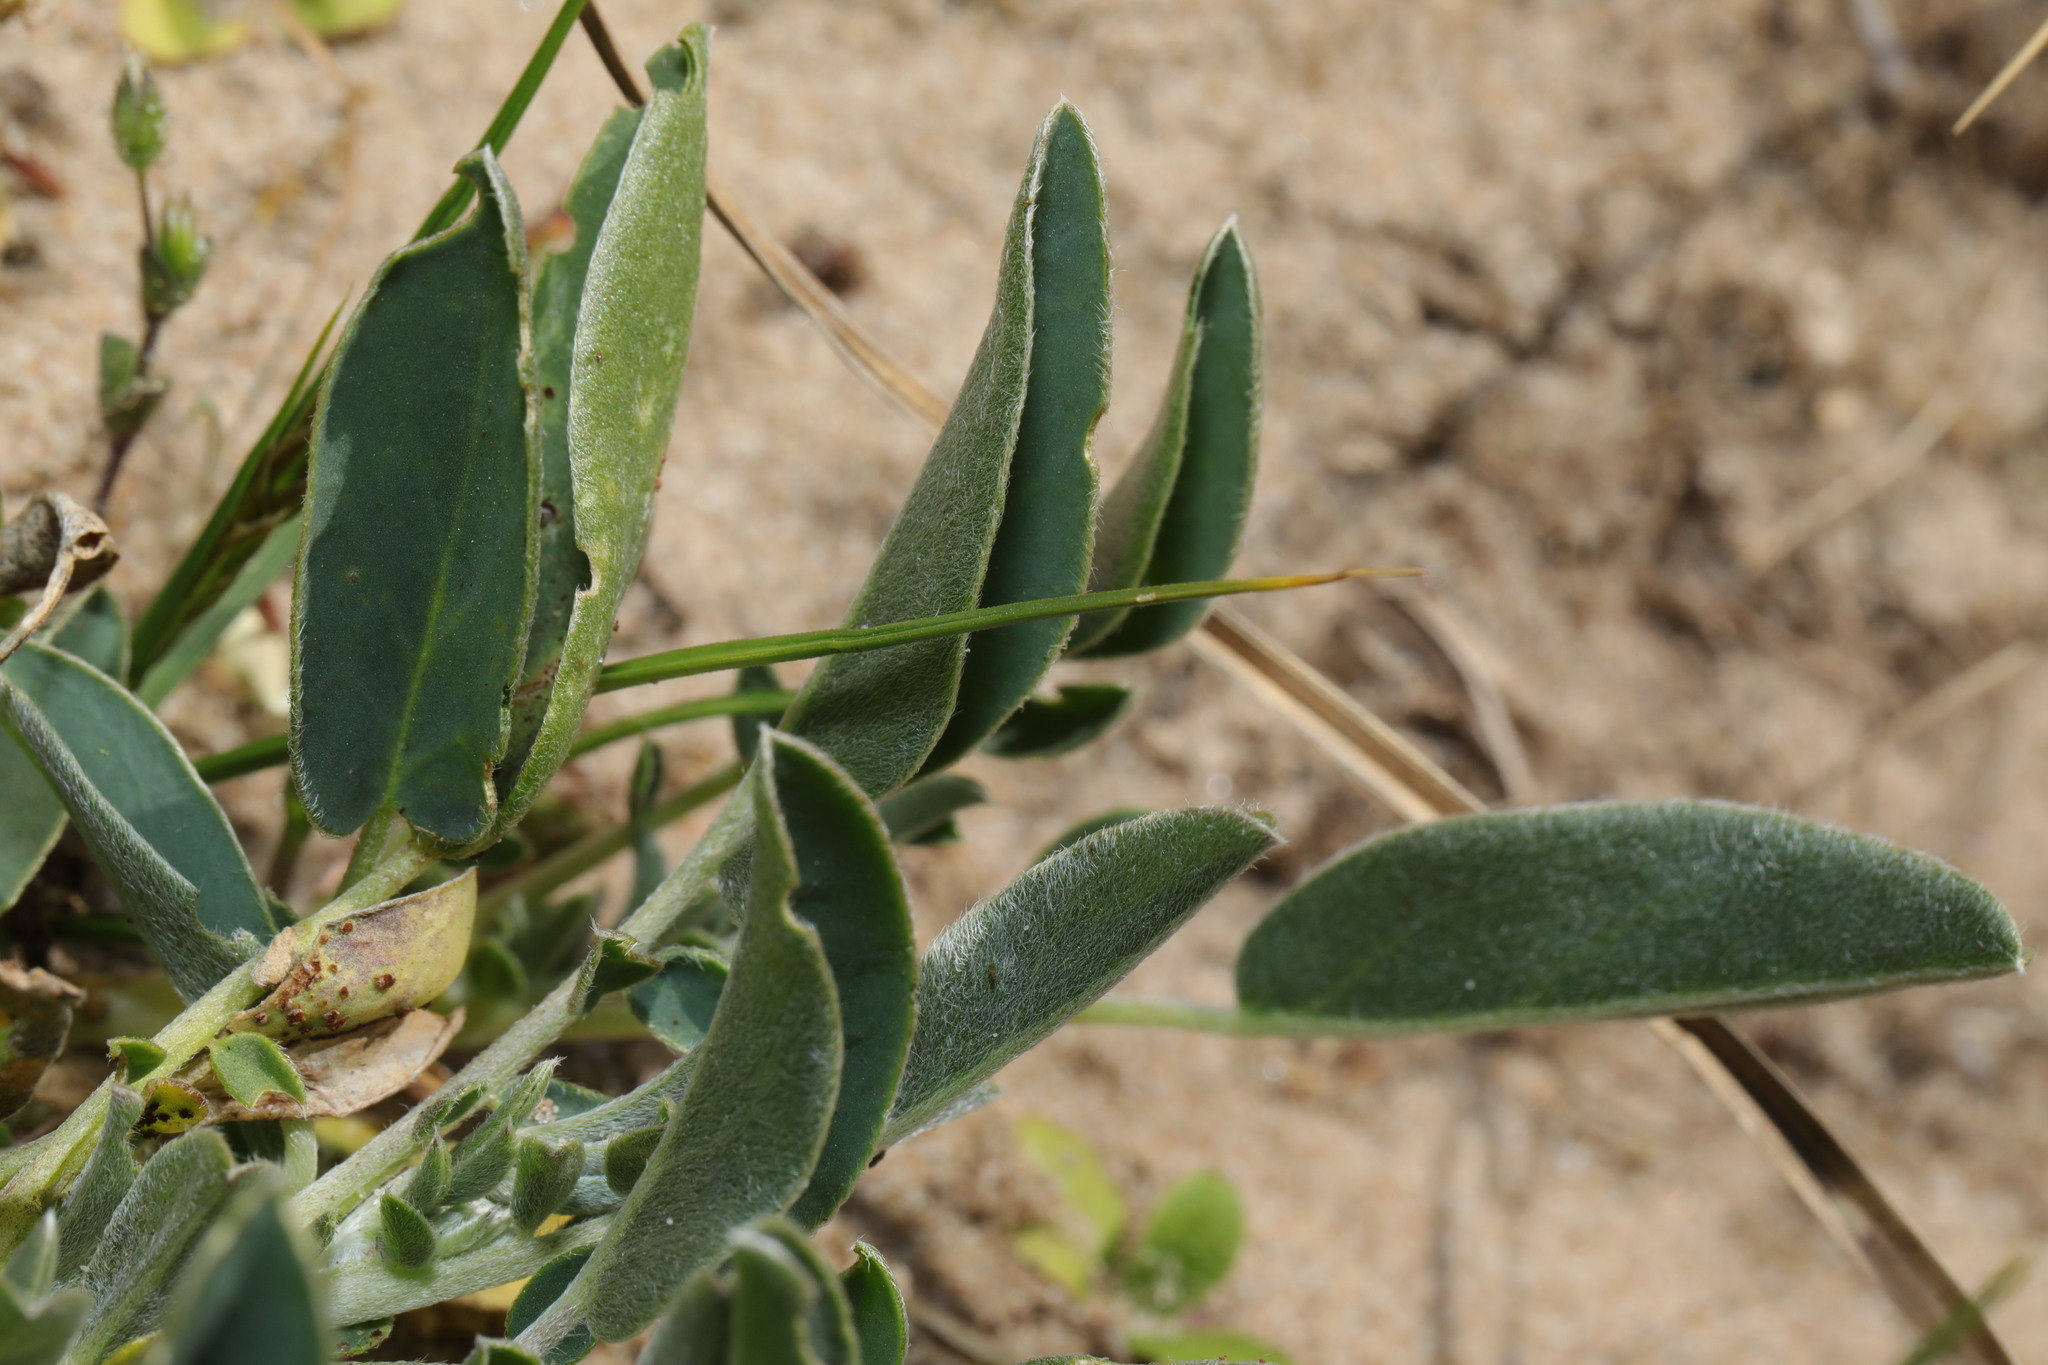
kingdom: Plantae
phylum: Tracheophyta
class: Magnoliopsida
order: Fabales
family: Fabaceae
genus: Anthyllis
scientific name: Anthyllis vulneraria
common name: Kidney vetch
